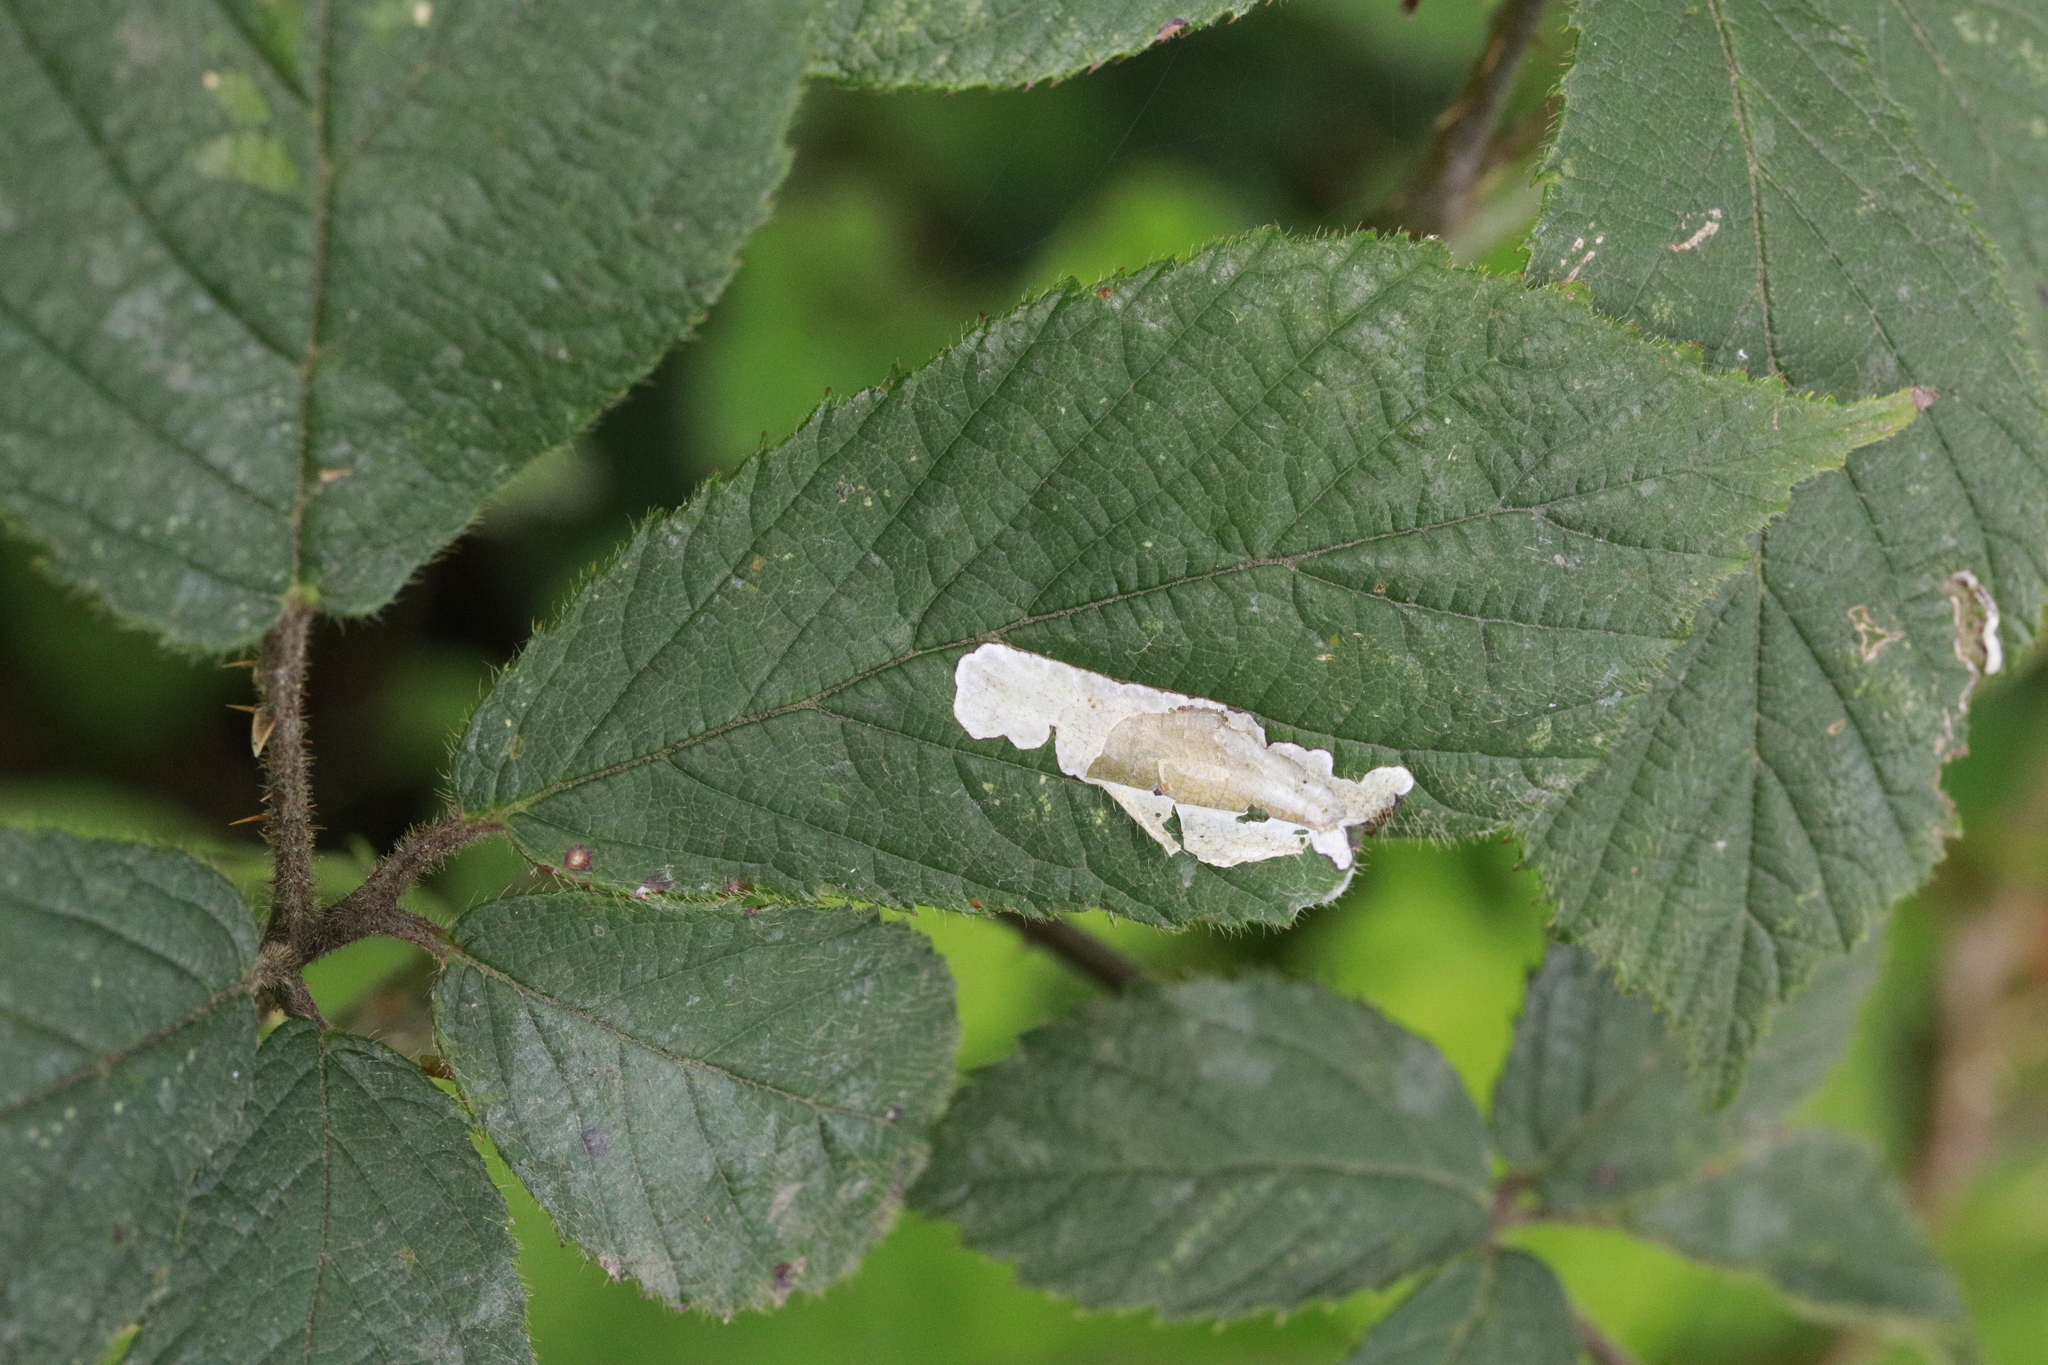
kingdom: Animalia
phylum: Arthropoda
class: Insecta
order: Lepidoptera
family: Tischeriidae
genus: Coptotriche
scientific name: Coptotriche marginea
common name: Bordered carl
